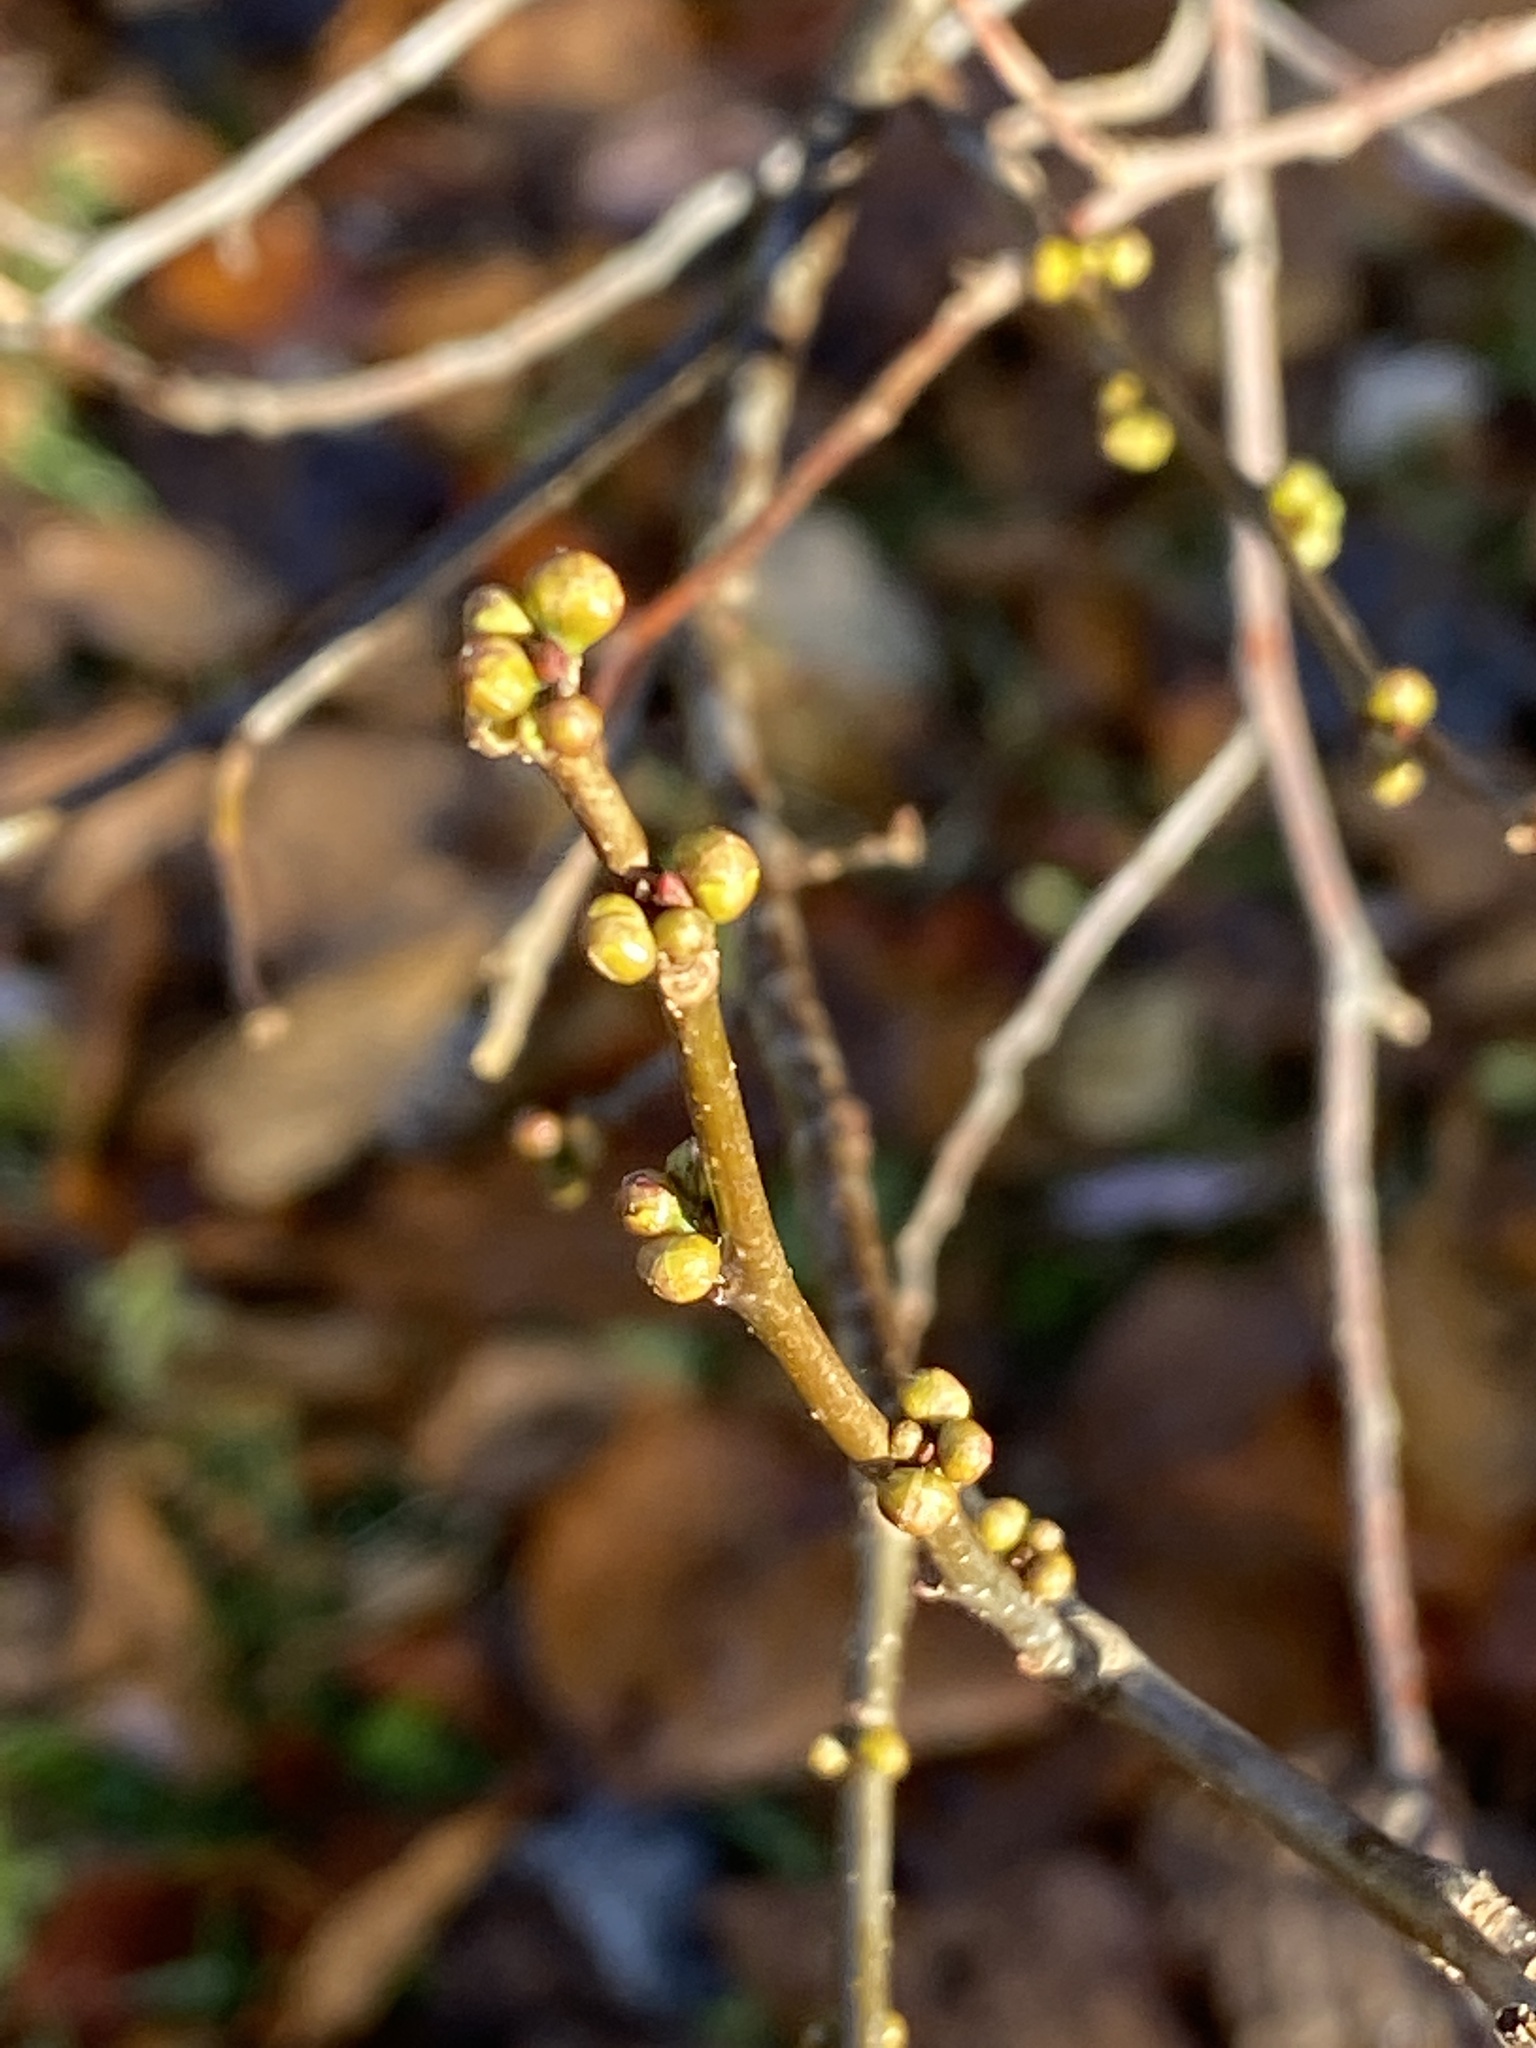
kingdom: Plantae
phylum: Tracheophyta
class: Magnoliopsida
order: Laurales
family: Lauraceae
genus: Lindera
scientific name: Lindera benzoin
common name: Spicebush
